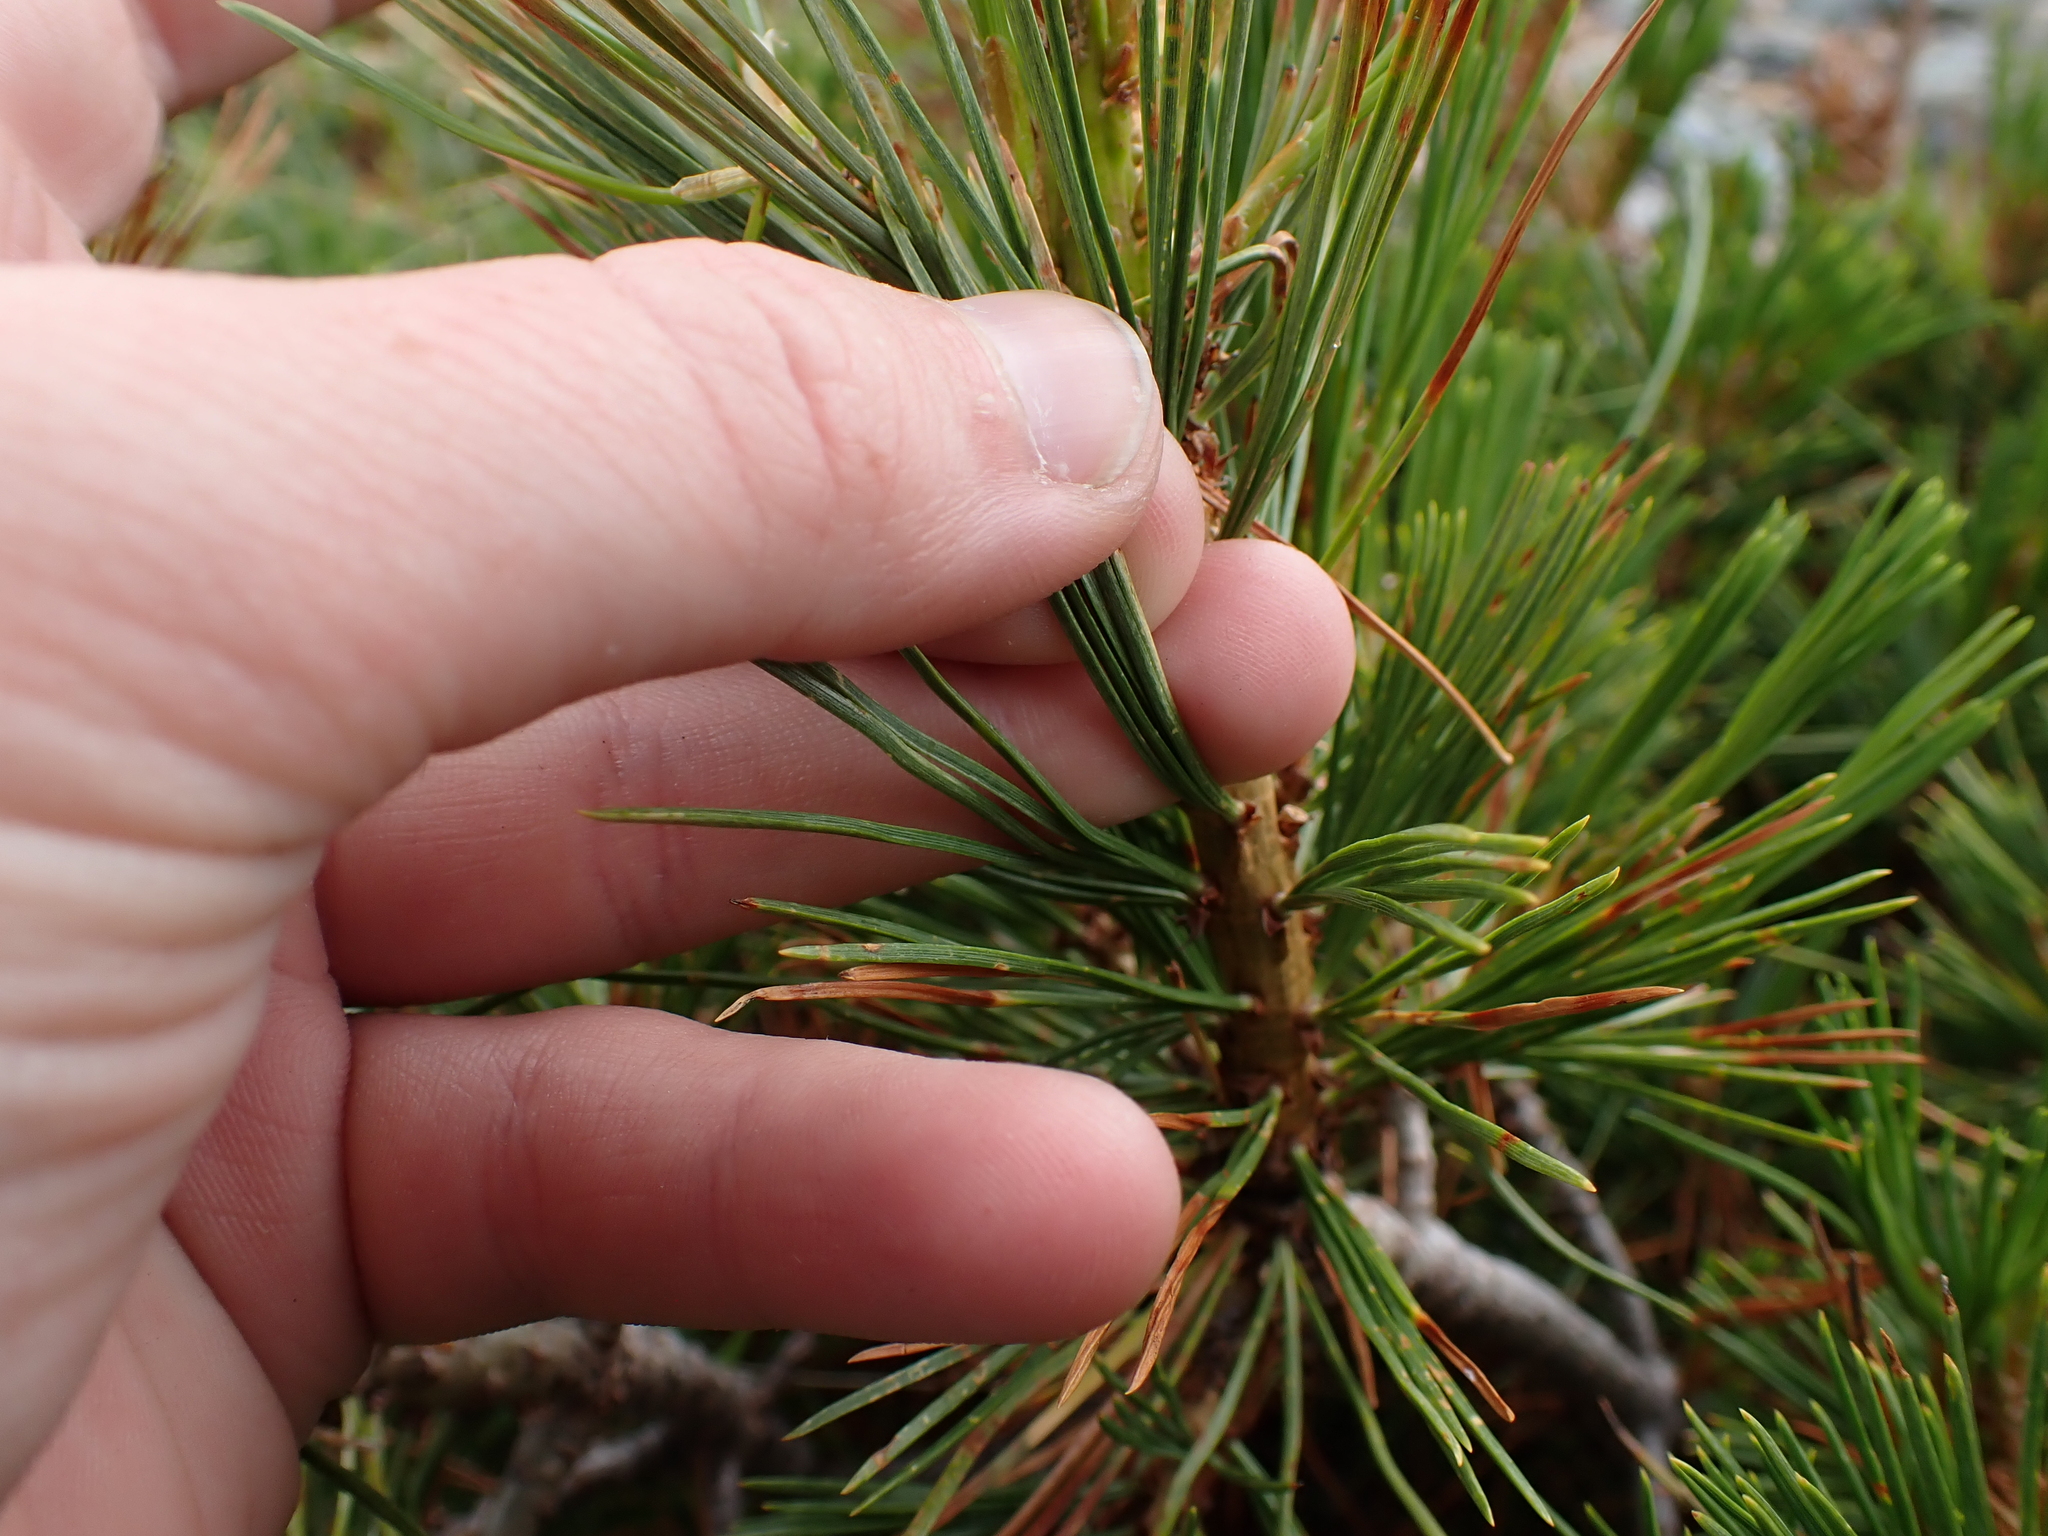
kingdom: Plantae
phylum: Tracheophyta
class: Pinopsida
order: Pinales
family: Pinaceae
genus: Pinus
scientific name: Pinus albicaulis
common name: Whitebark pine
